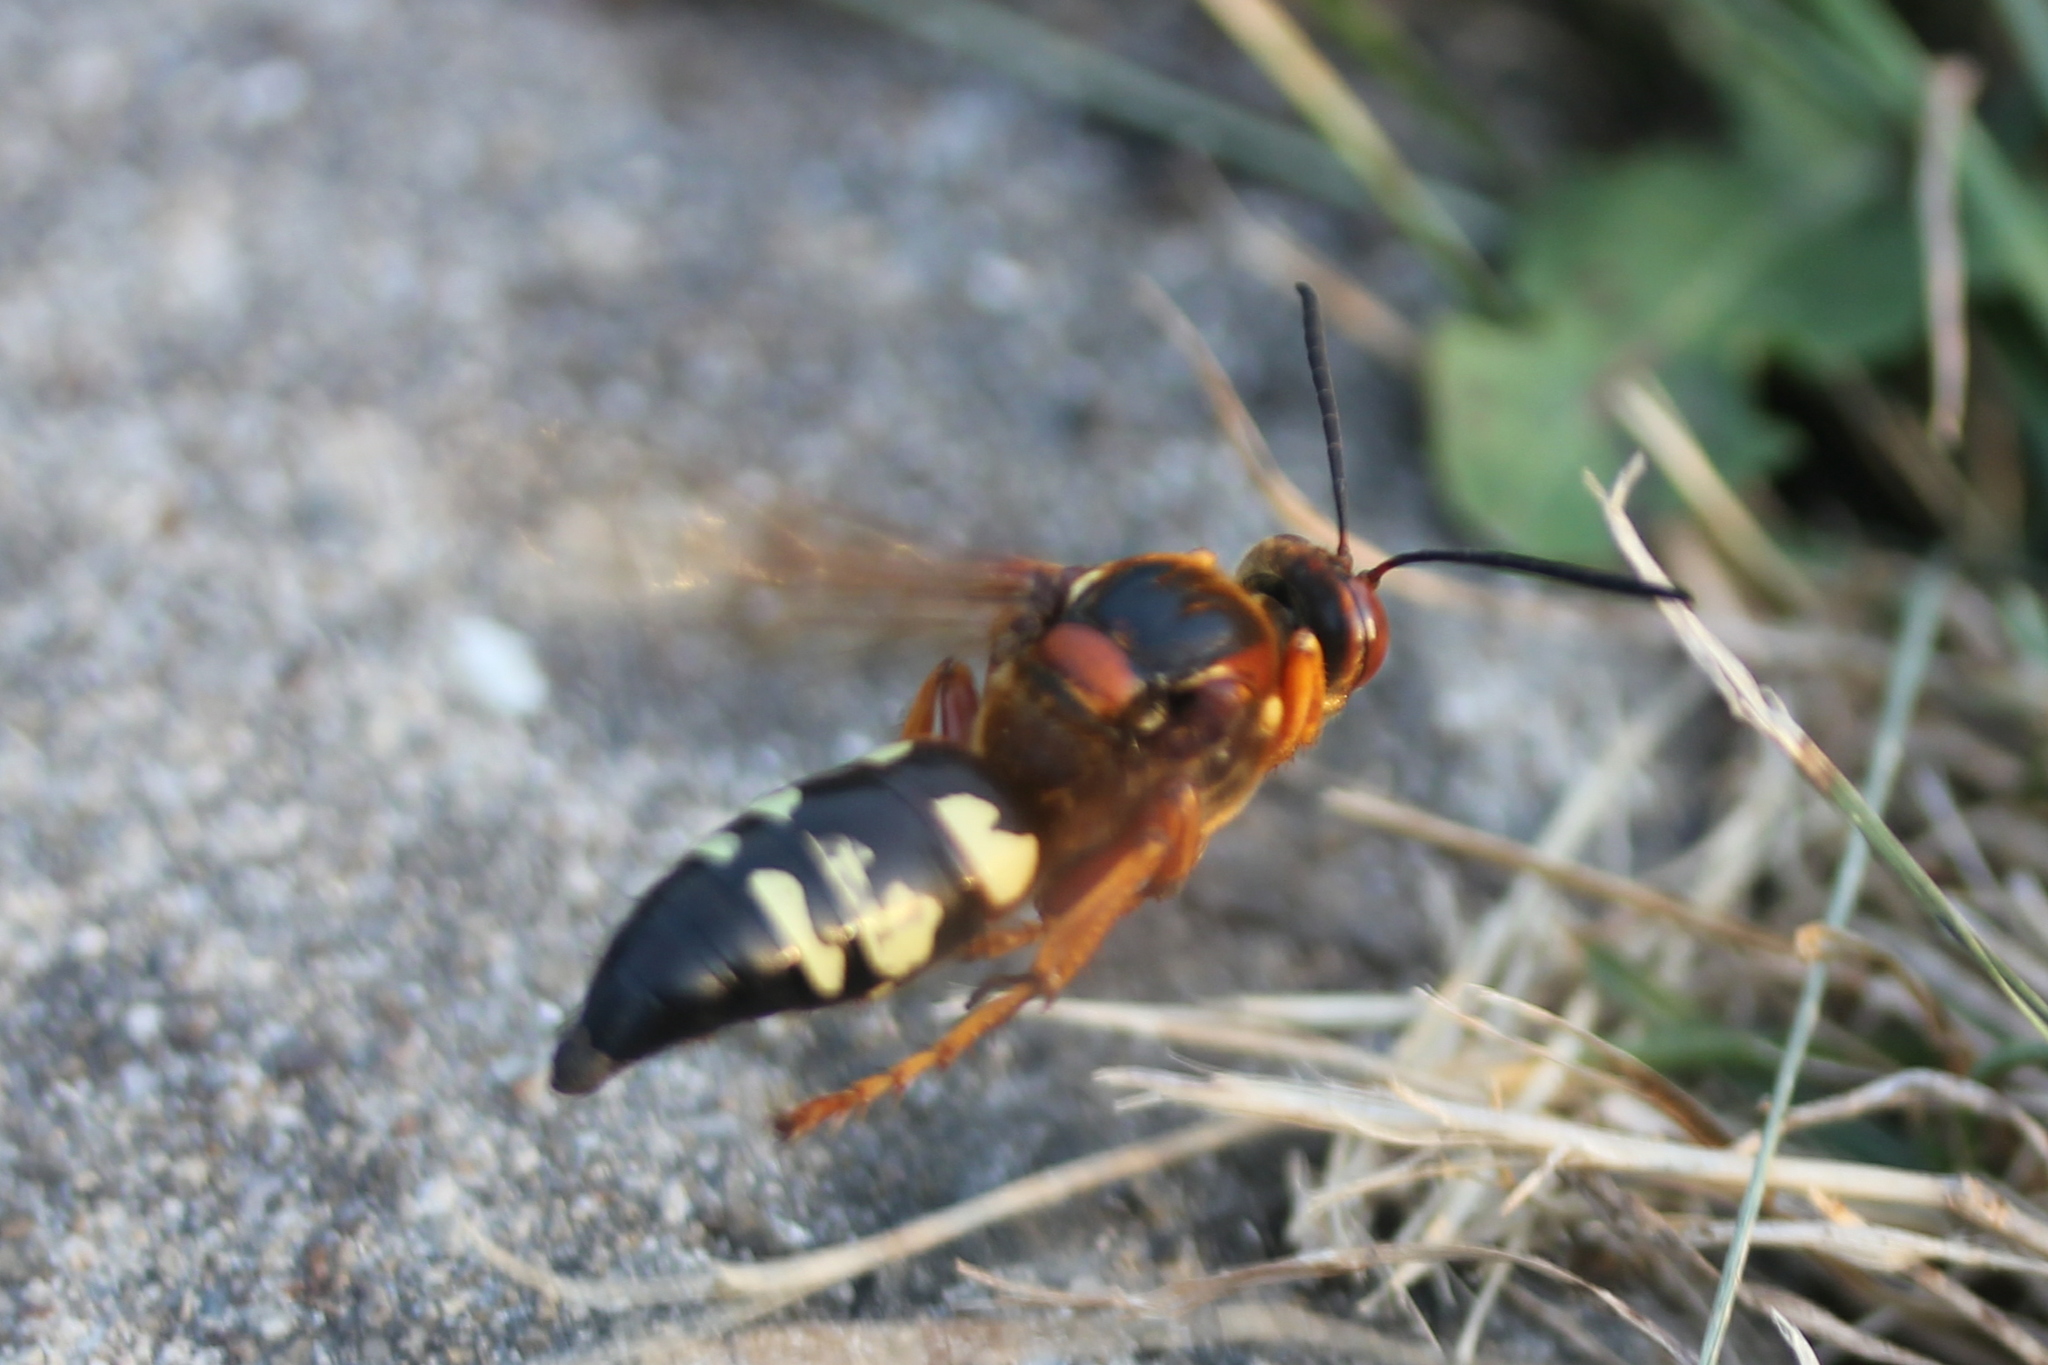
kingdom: Animalia
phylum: Arthropoda
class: Insecta
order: Hymenoptera
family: Crabronidae
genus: Sphecius
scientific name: Sphecius speciosus
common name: Cicada killer
